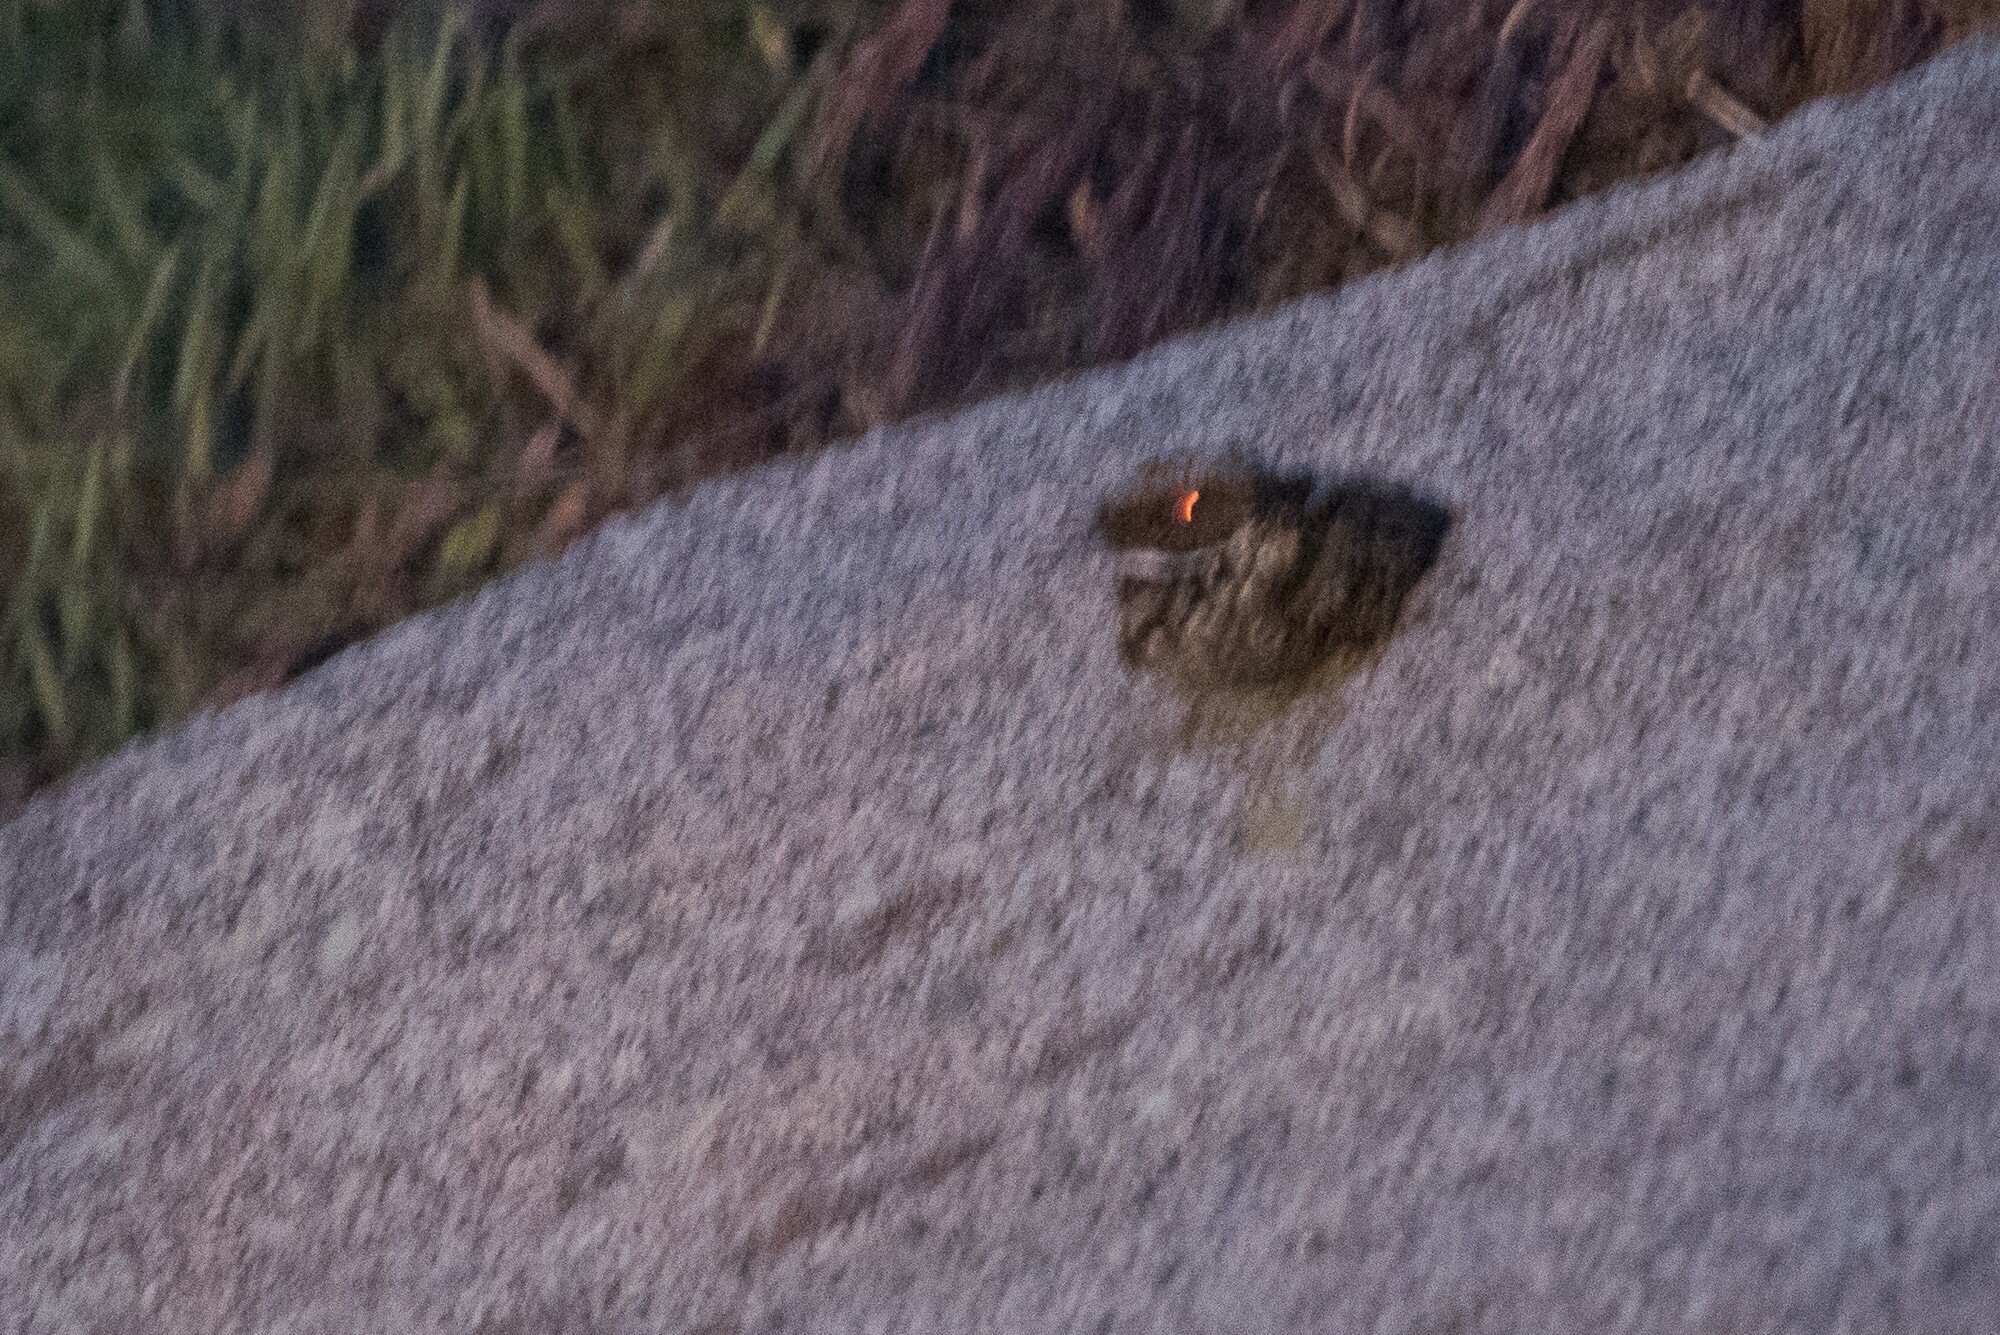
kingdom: Animalia
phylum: Chordata
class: Aves
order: Caprimulgiformes
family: Caprimulgidae
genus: Phalaenoptilus
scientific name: Phalaenoptilus nuttallii
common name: Common poorwill
